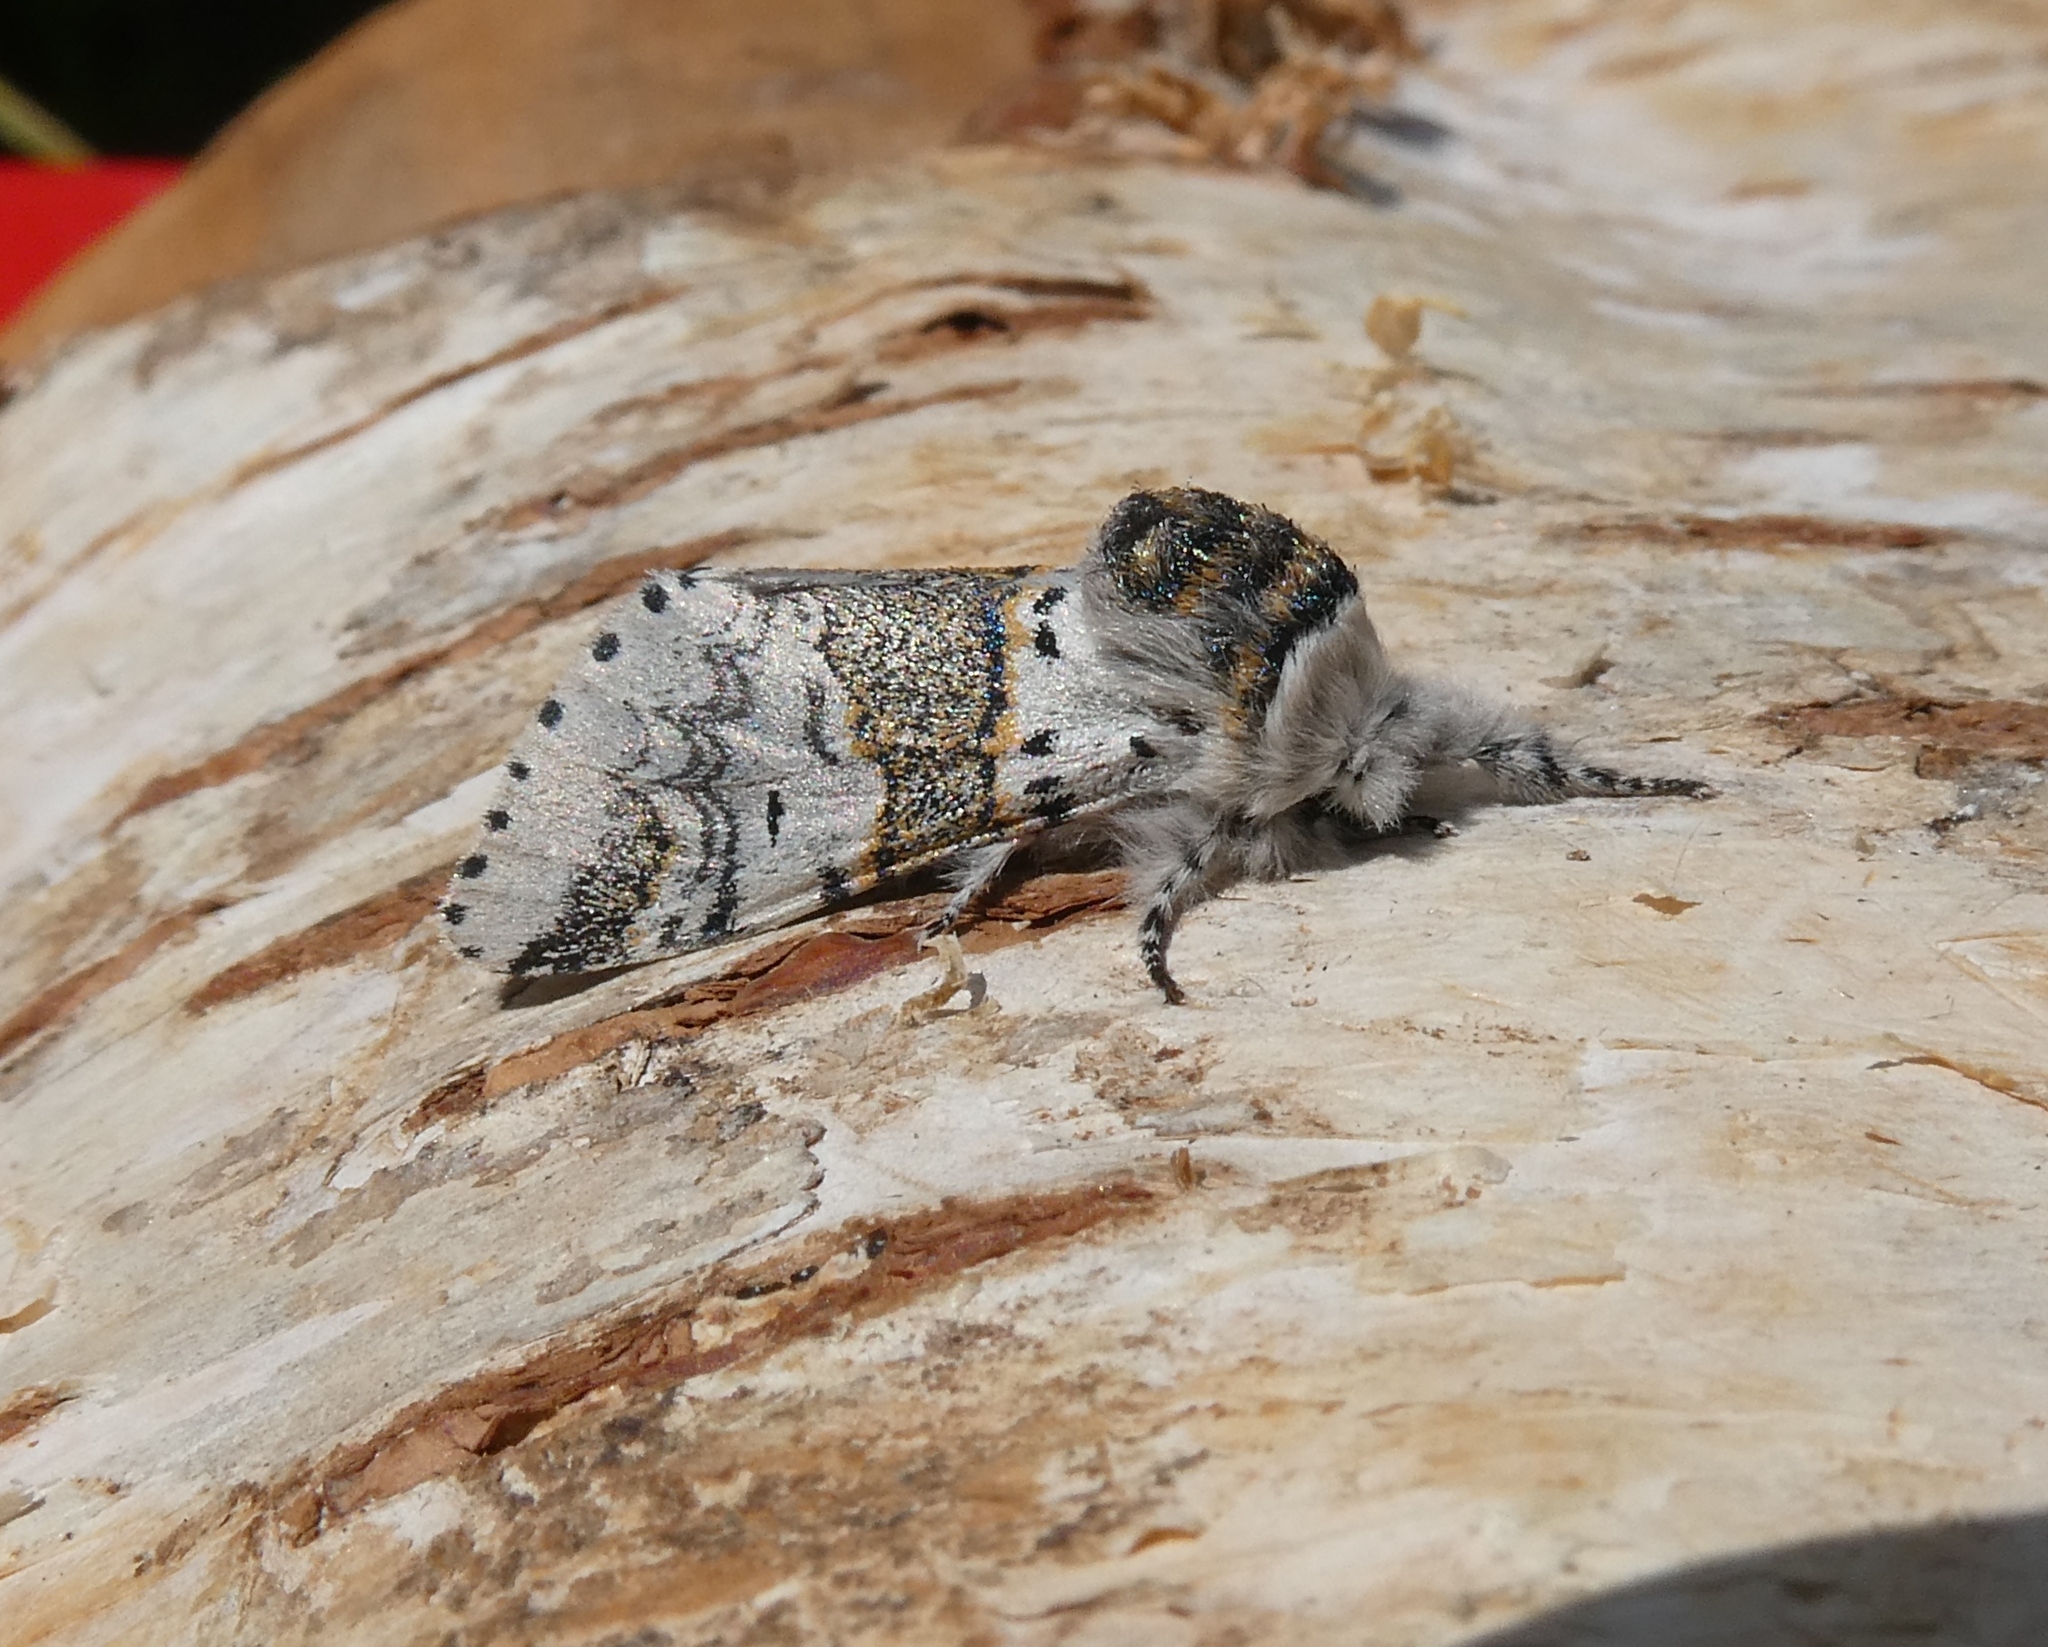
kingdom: Animalia
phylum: Arthropoda
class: Insecta
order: Lepidoptera
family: Notodontidae
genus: Furcula
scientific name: Furcula furcula
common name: Sallow kitten
